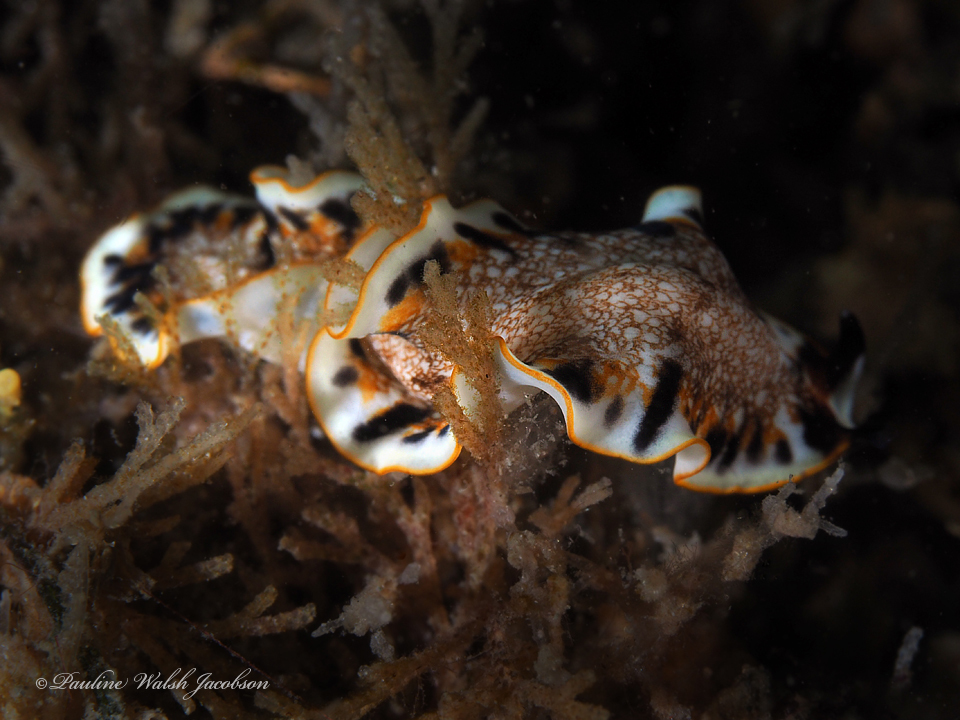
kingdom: Animalia
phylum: Platyhelminthes
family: Euryleptidae
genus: Prostheceraeus
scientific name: Prostheceraeus floridanus
